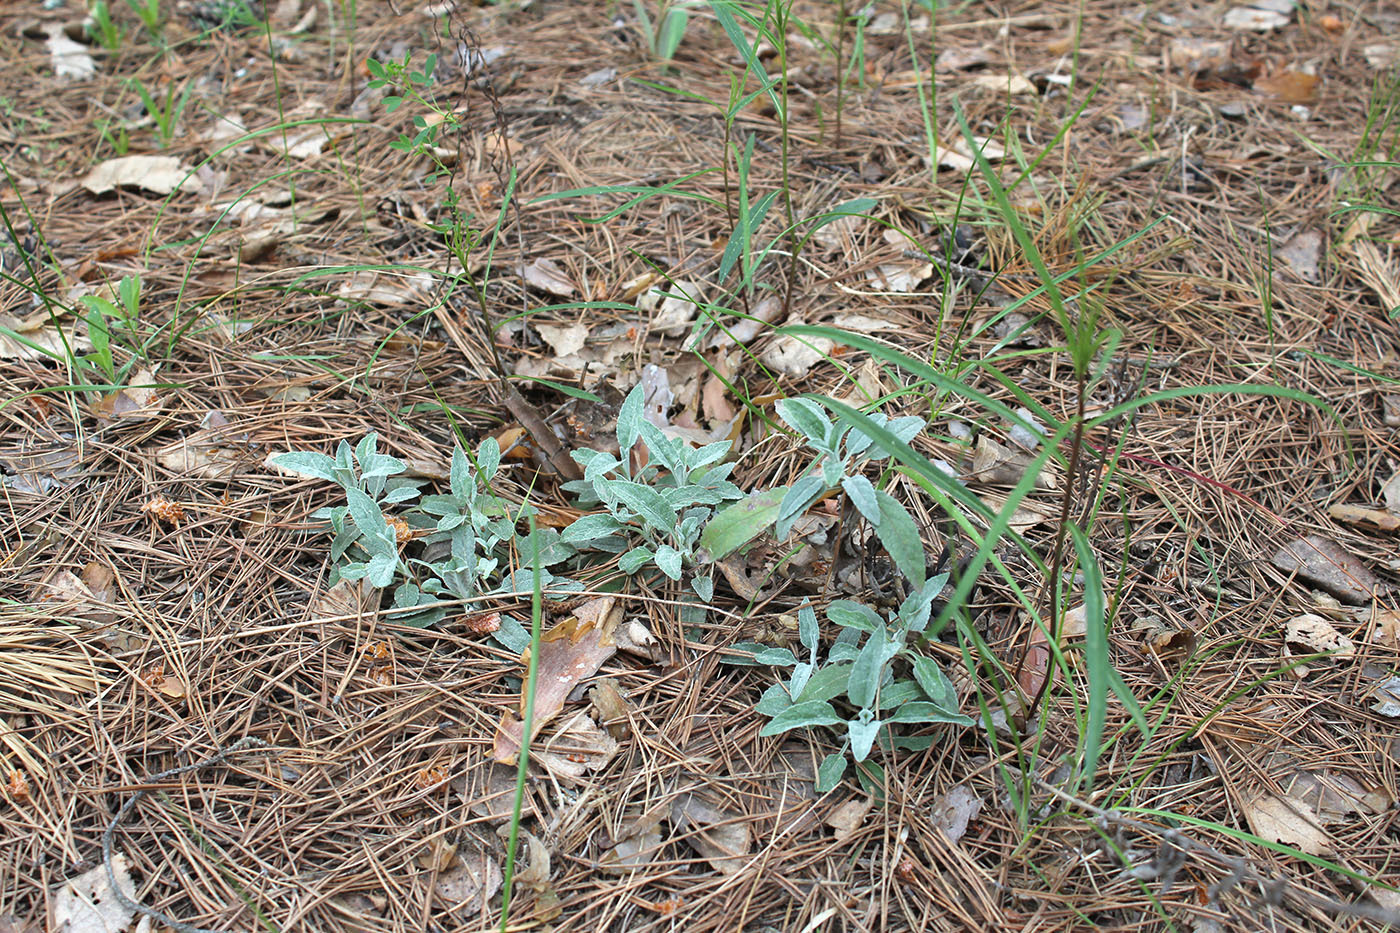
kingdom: Plantae
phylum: Tracheophyta
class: Magnoliopsida
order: Lamiales
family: Plantaginaceae
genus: Veronica
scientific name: Veronica incana
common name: Silver speedwell
